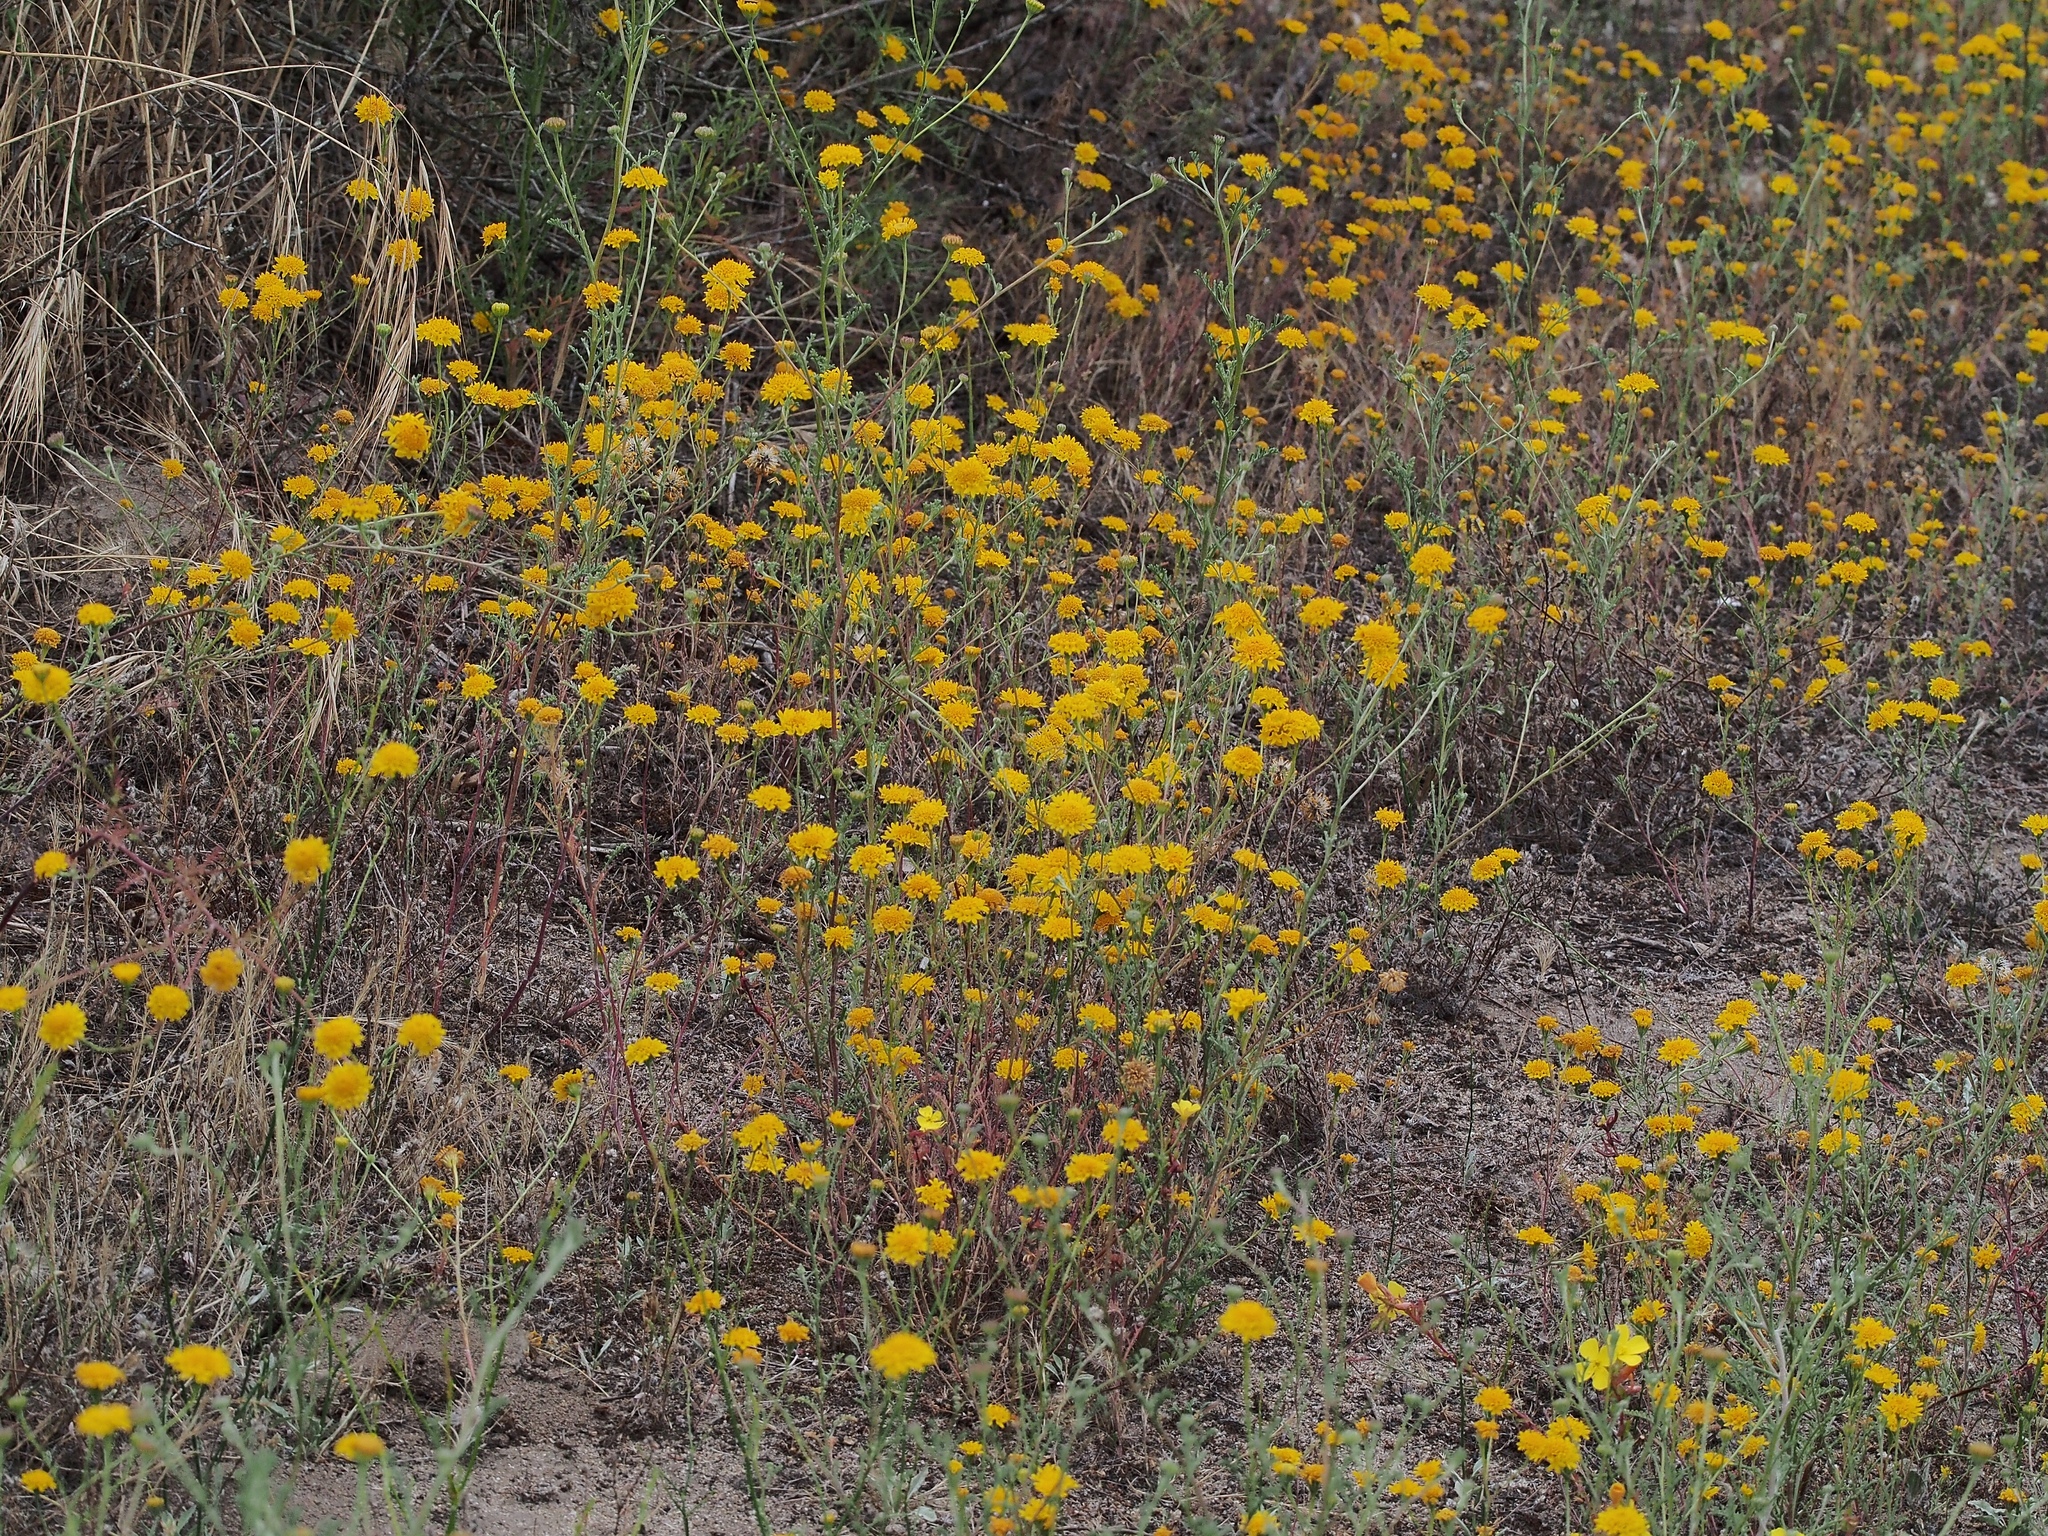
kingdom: Plantae
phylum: Tracheophyta
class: Magnoliopsida
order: Asterales
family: Asteraceae
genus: Chaenactis
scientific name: Chaenactis glabriuscula
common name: Yellow pincushion
